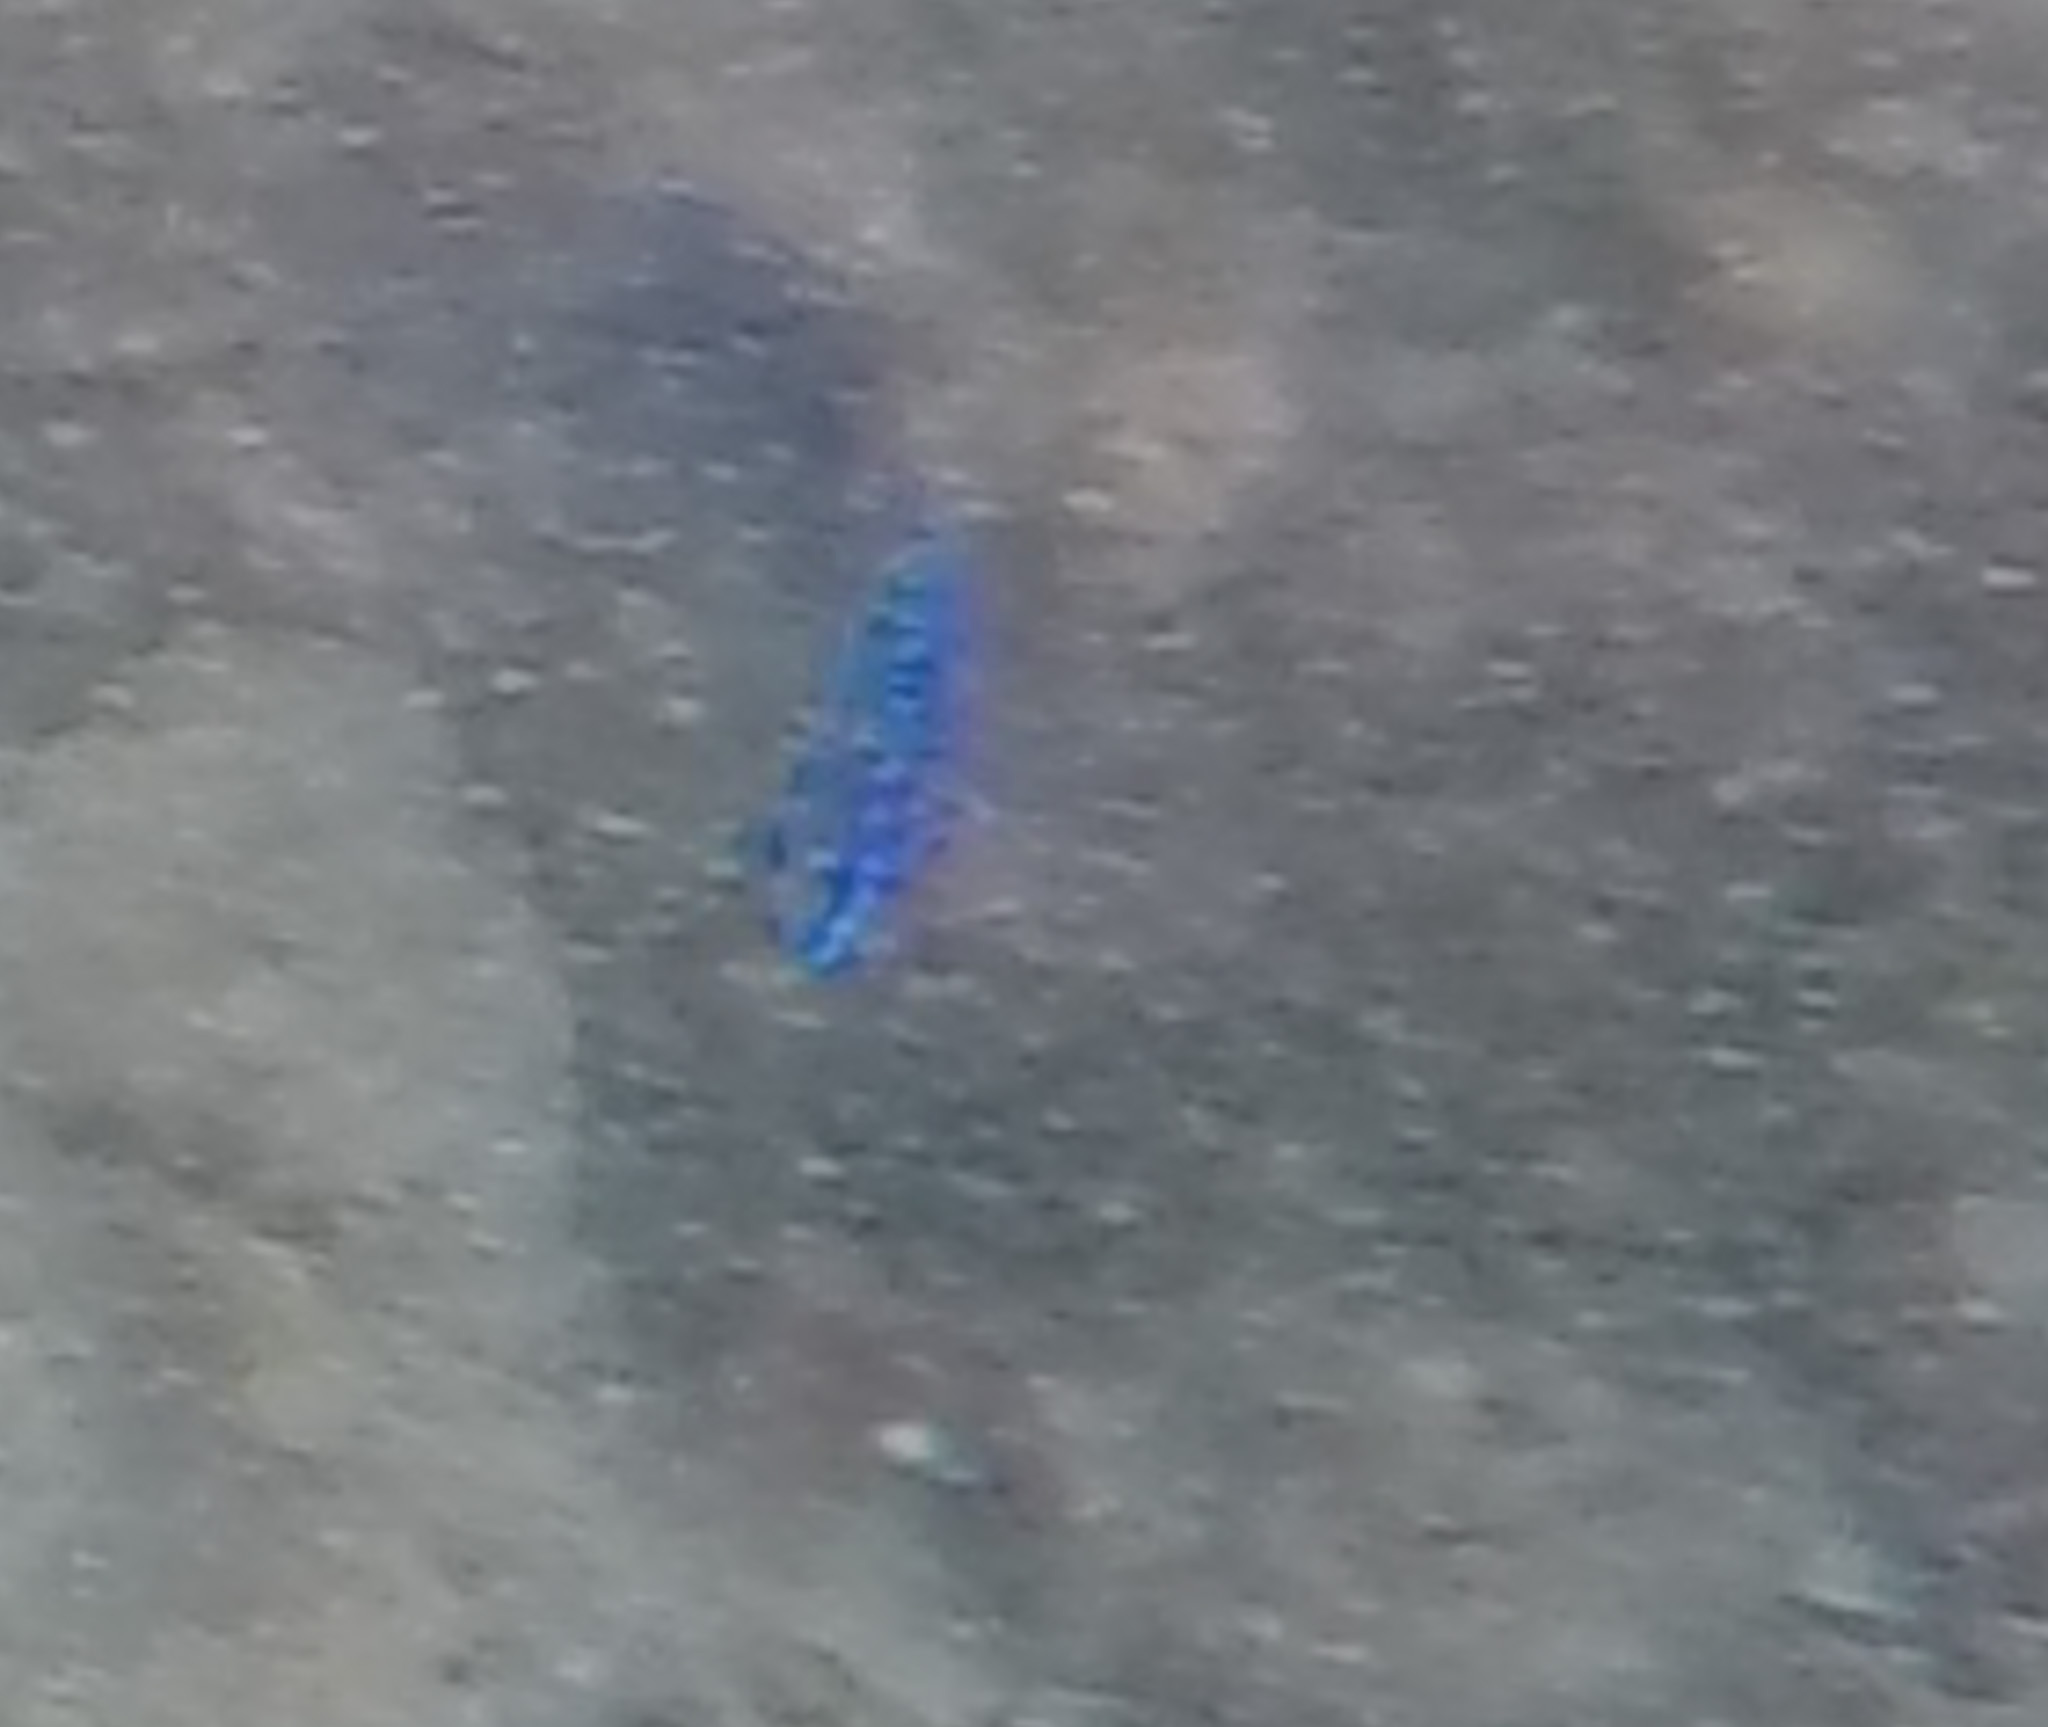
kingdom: Animalia
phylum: Chordata
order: Perciformes
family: Pomacentridae
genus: Stegastes
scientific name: Stegastes acapulcoensis
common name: Acapulco damselfish
